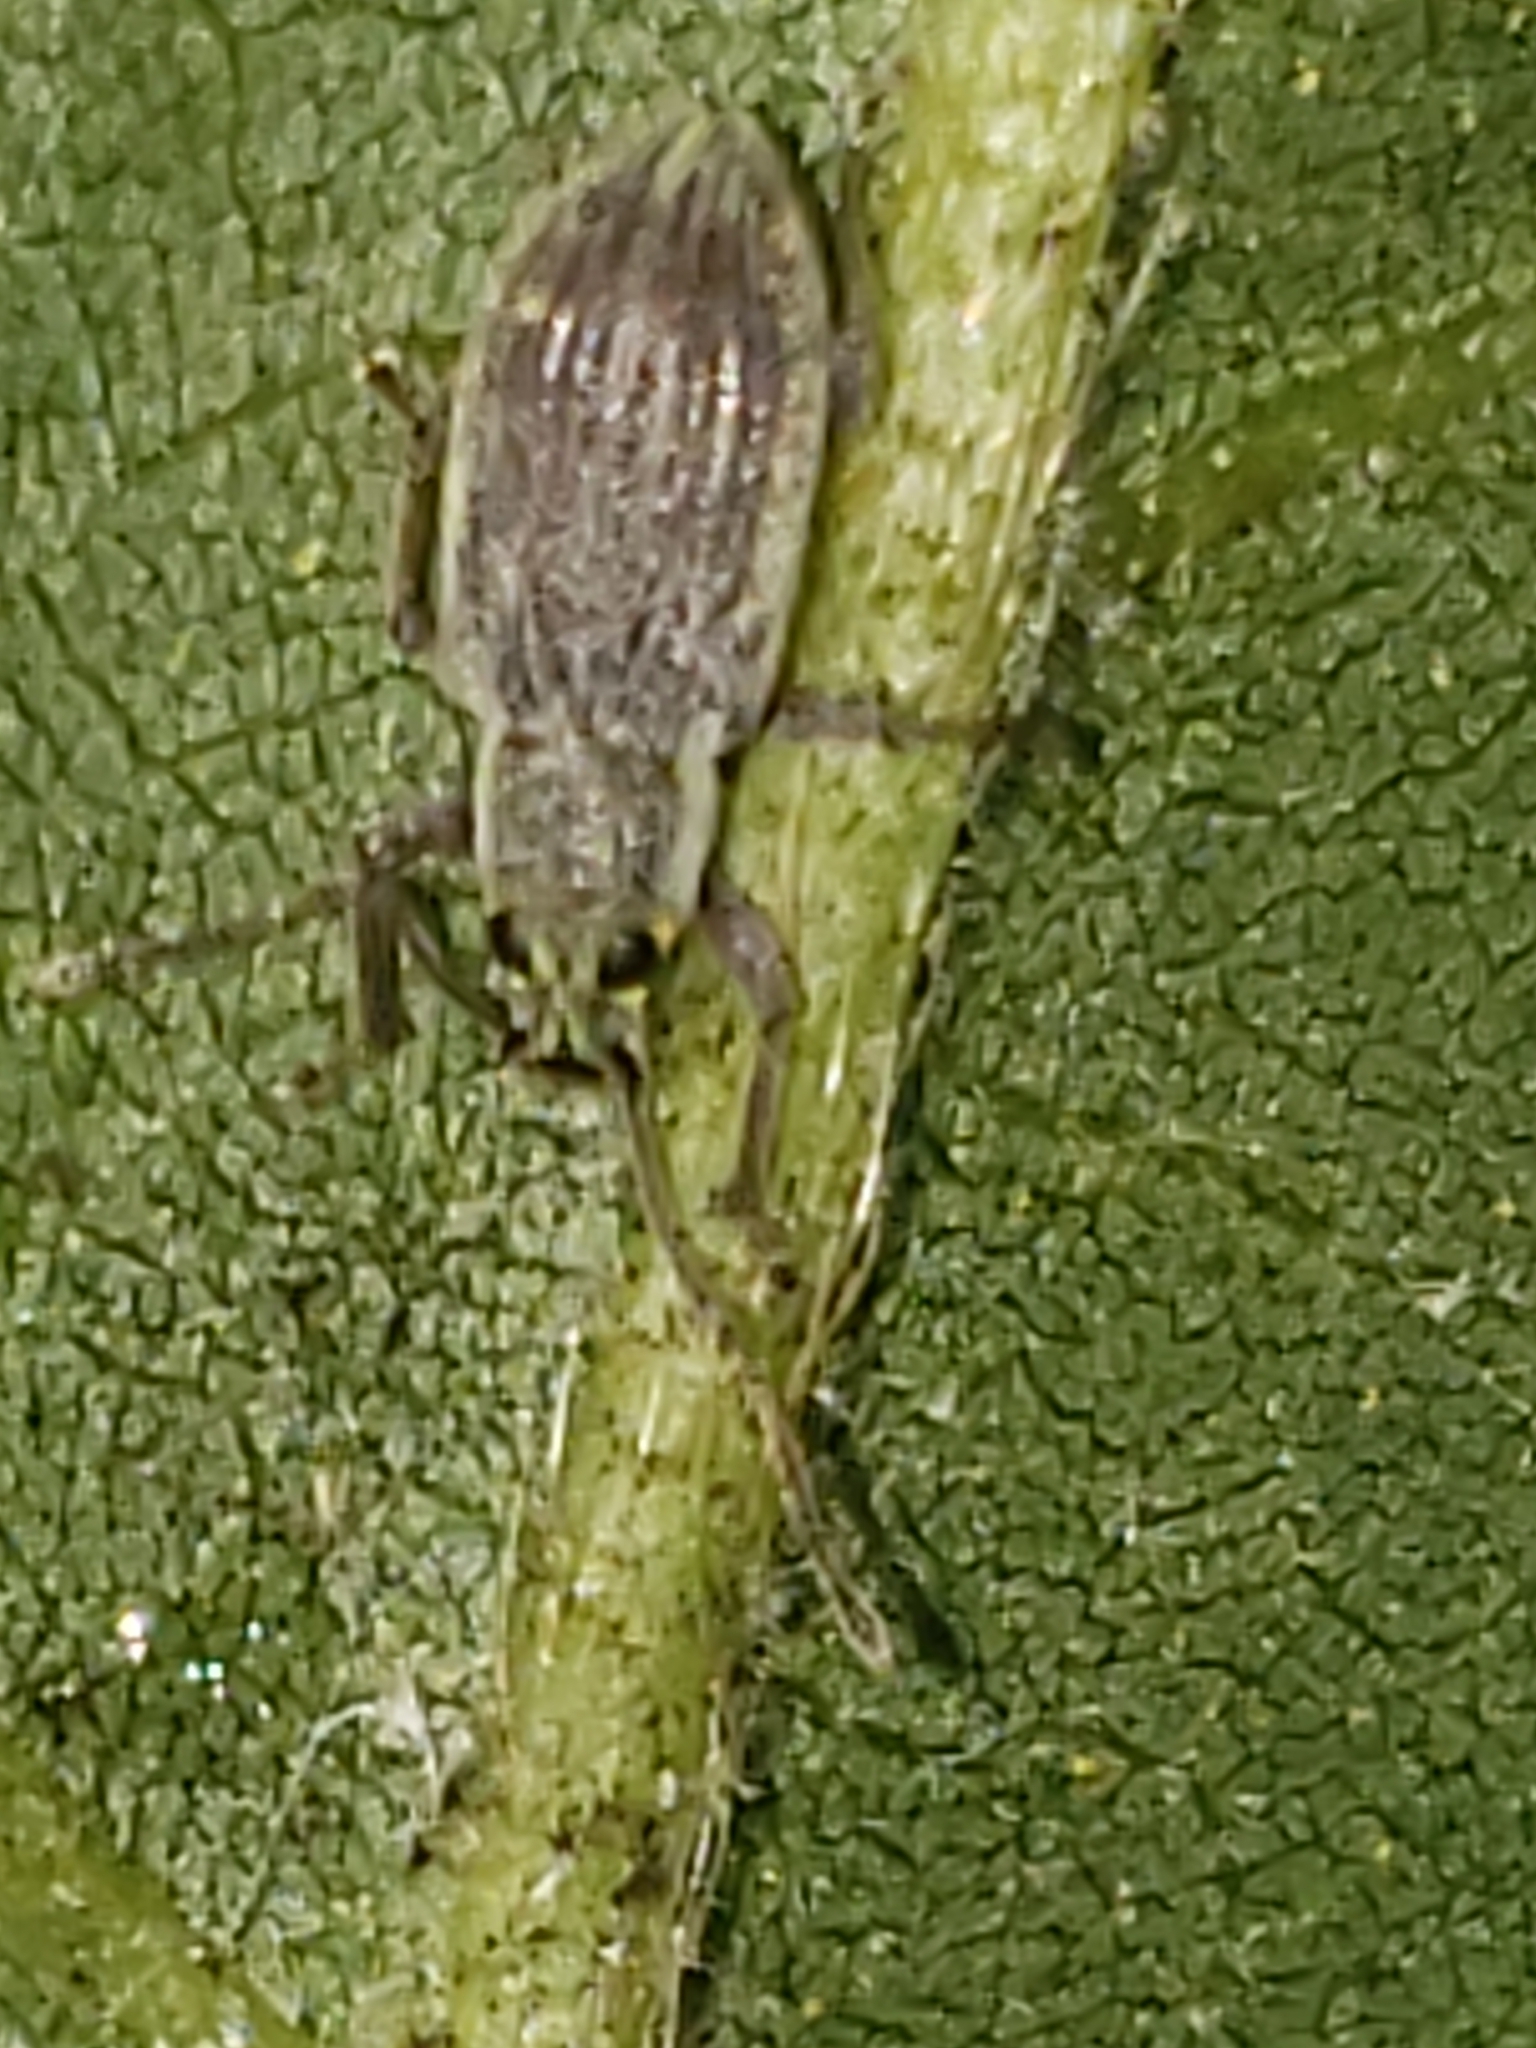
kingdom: Animalia
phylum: Arthropoda
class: Insecta
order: Coleoptera
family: Curculionidae
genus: Cyrtepistomus
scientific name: Cyrtepistomus castaneus
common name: Weevil
